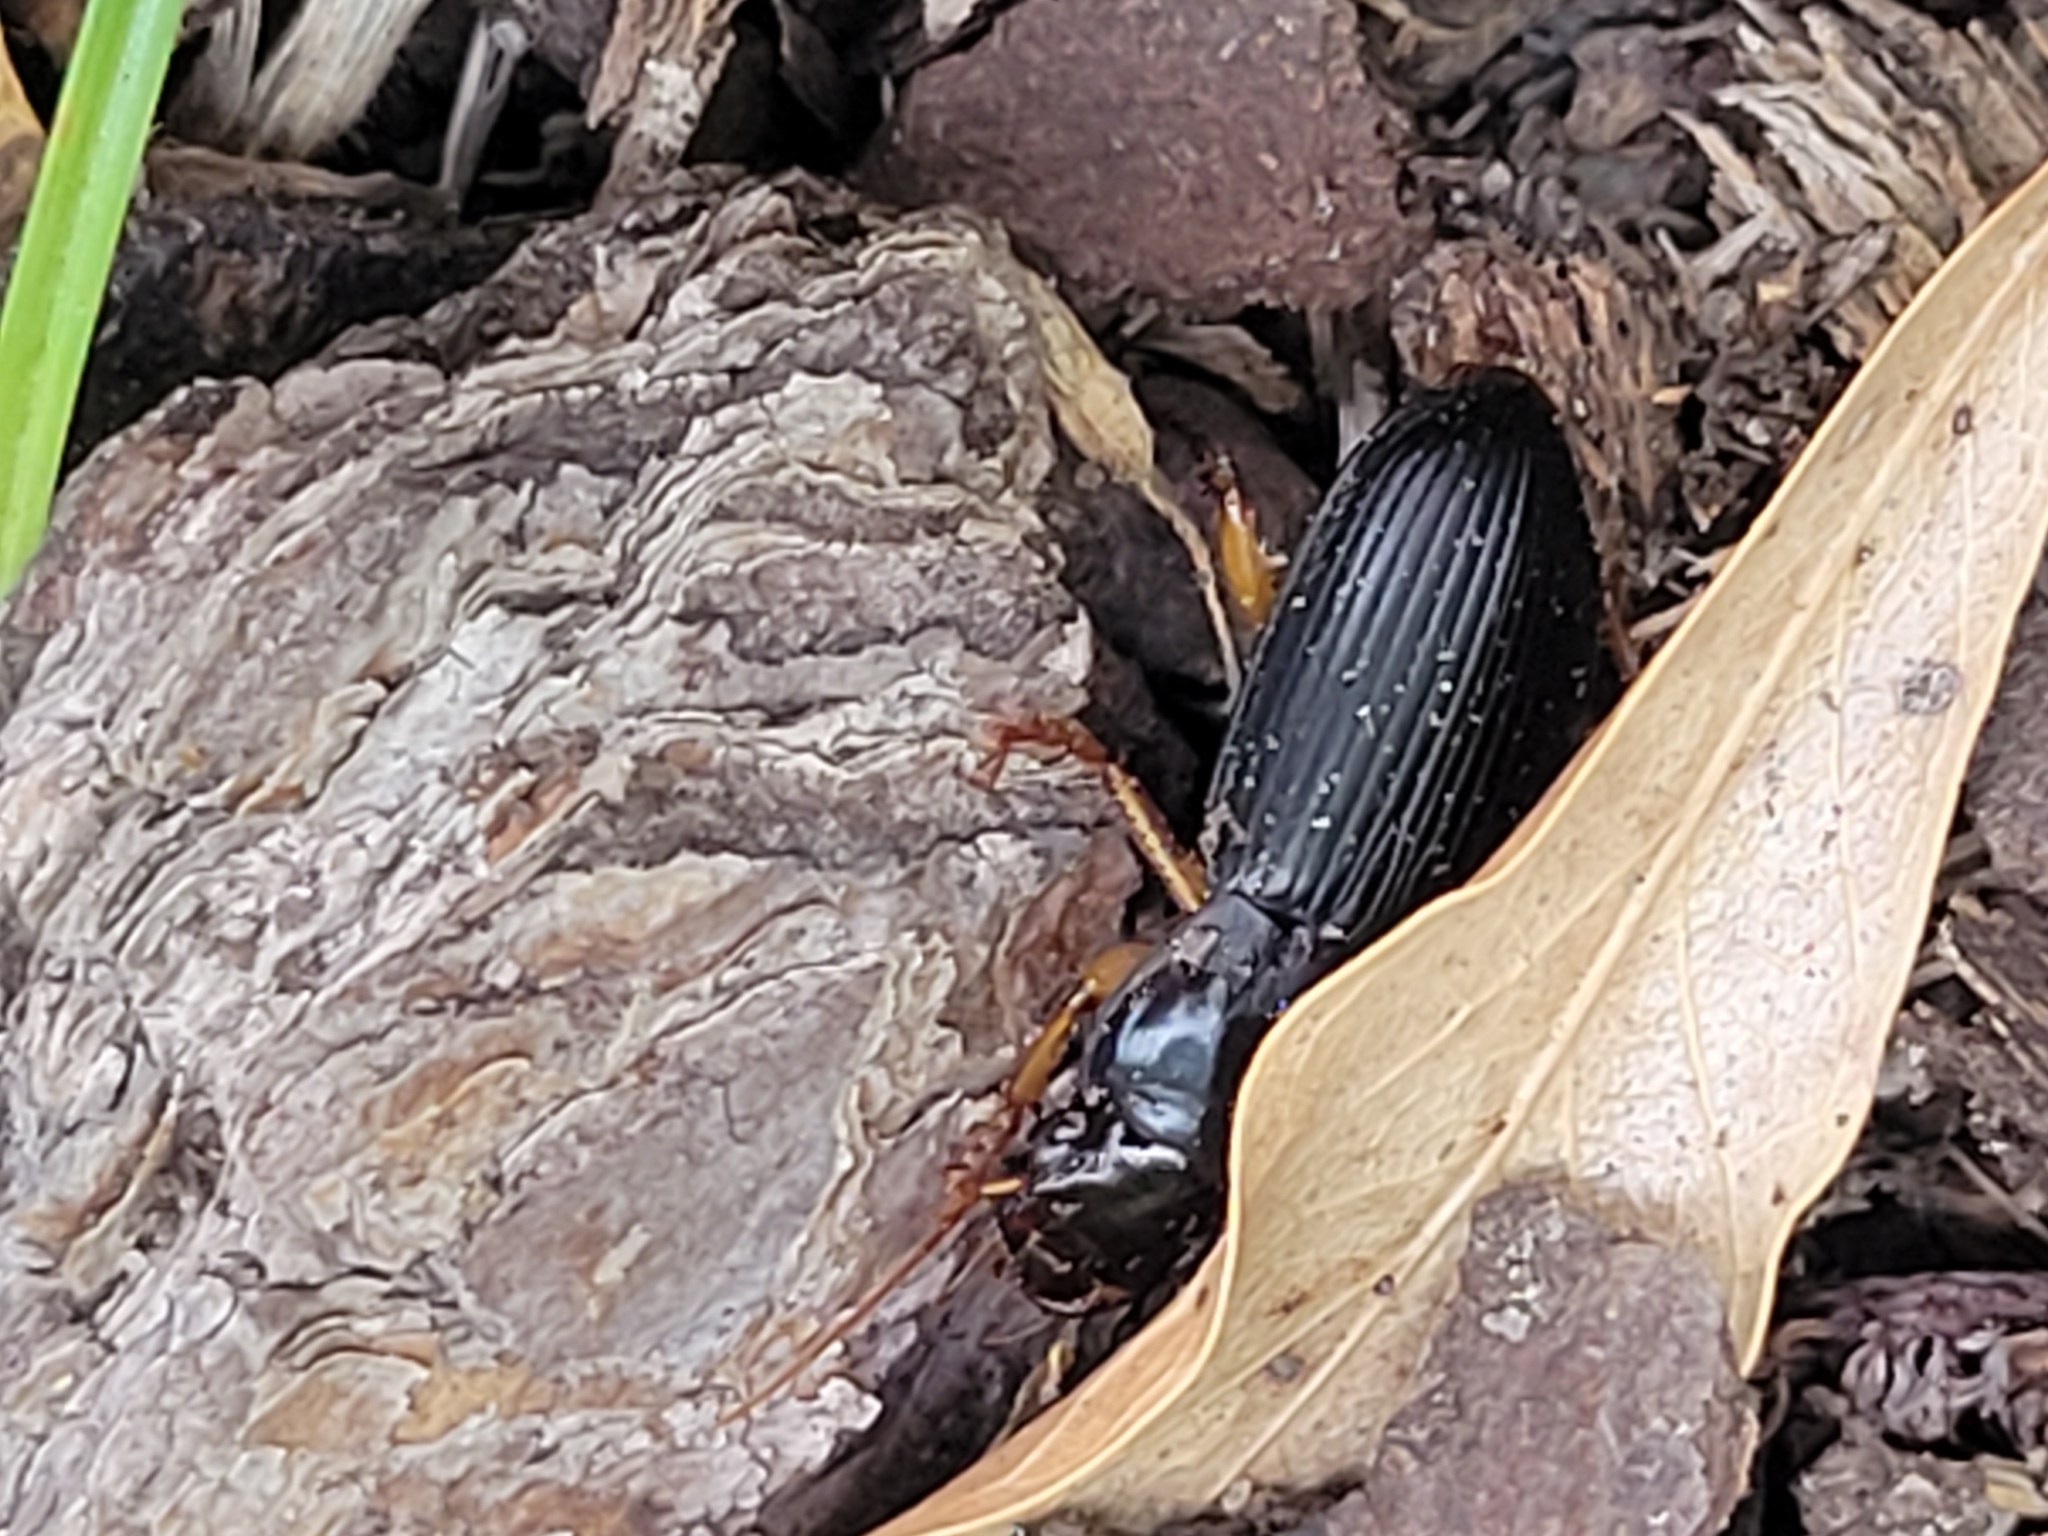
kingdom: Animalia
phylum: Arthropoda
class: Insecta
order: Coleoptera
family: Carabidae
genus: Harpalus
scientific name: Harpalus pensylvanicus
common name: Pennsylvania dingy ground beetle
